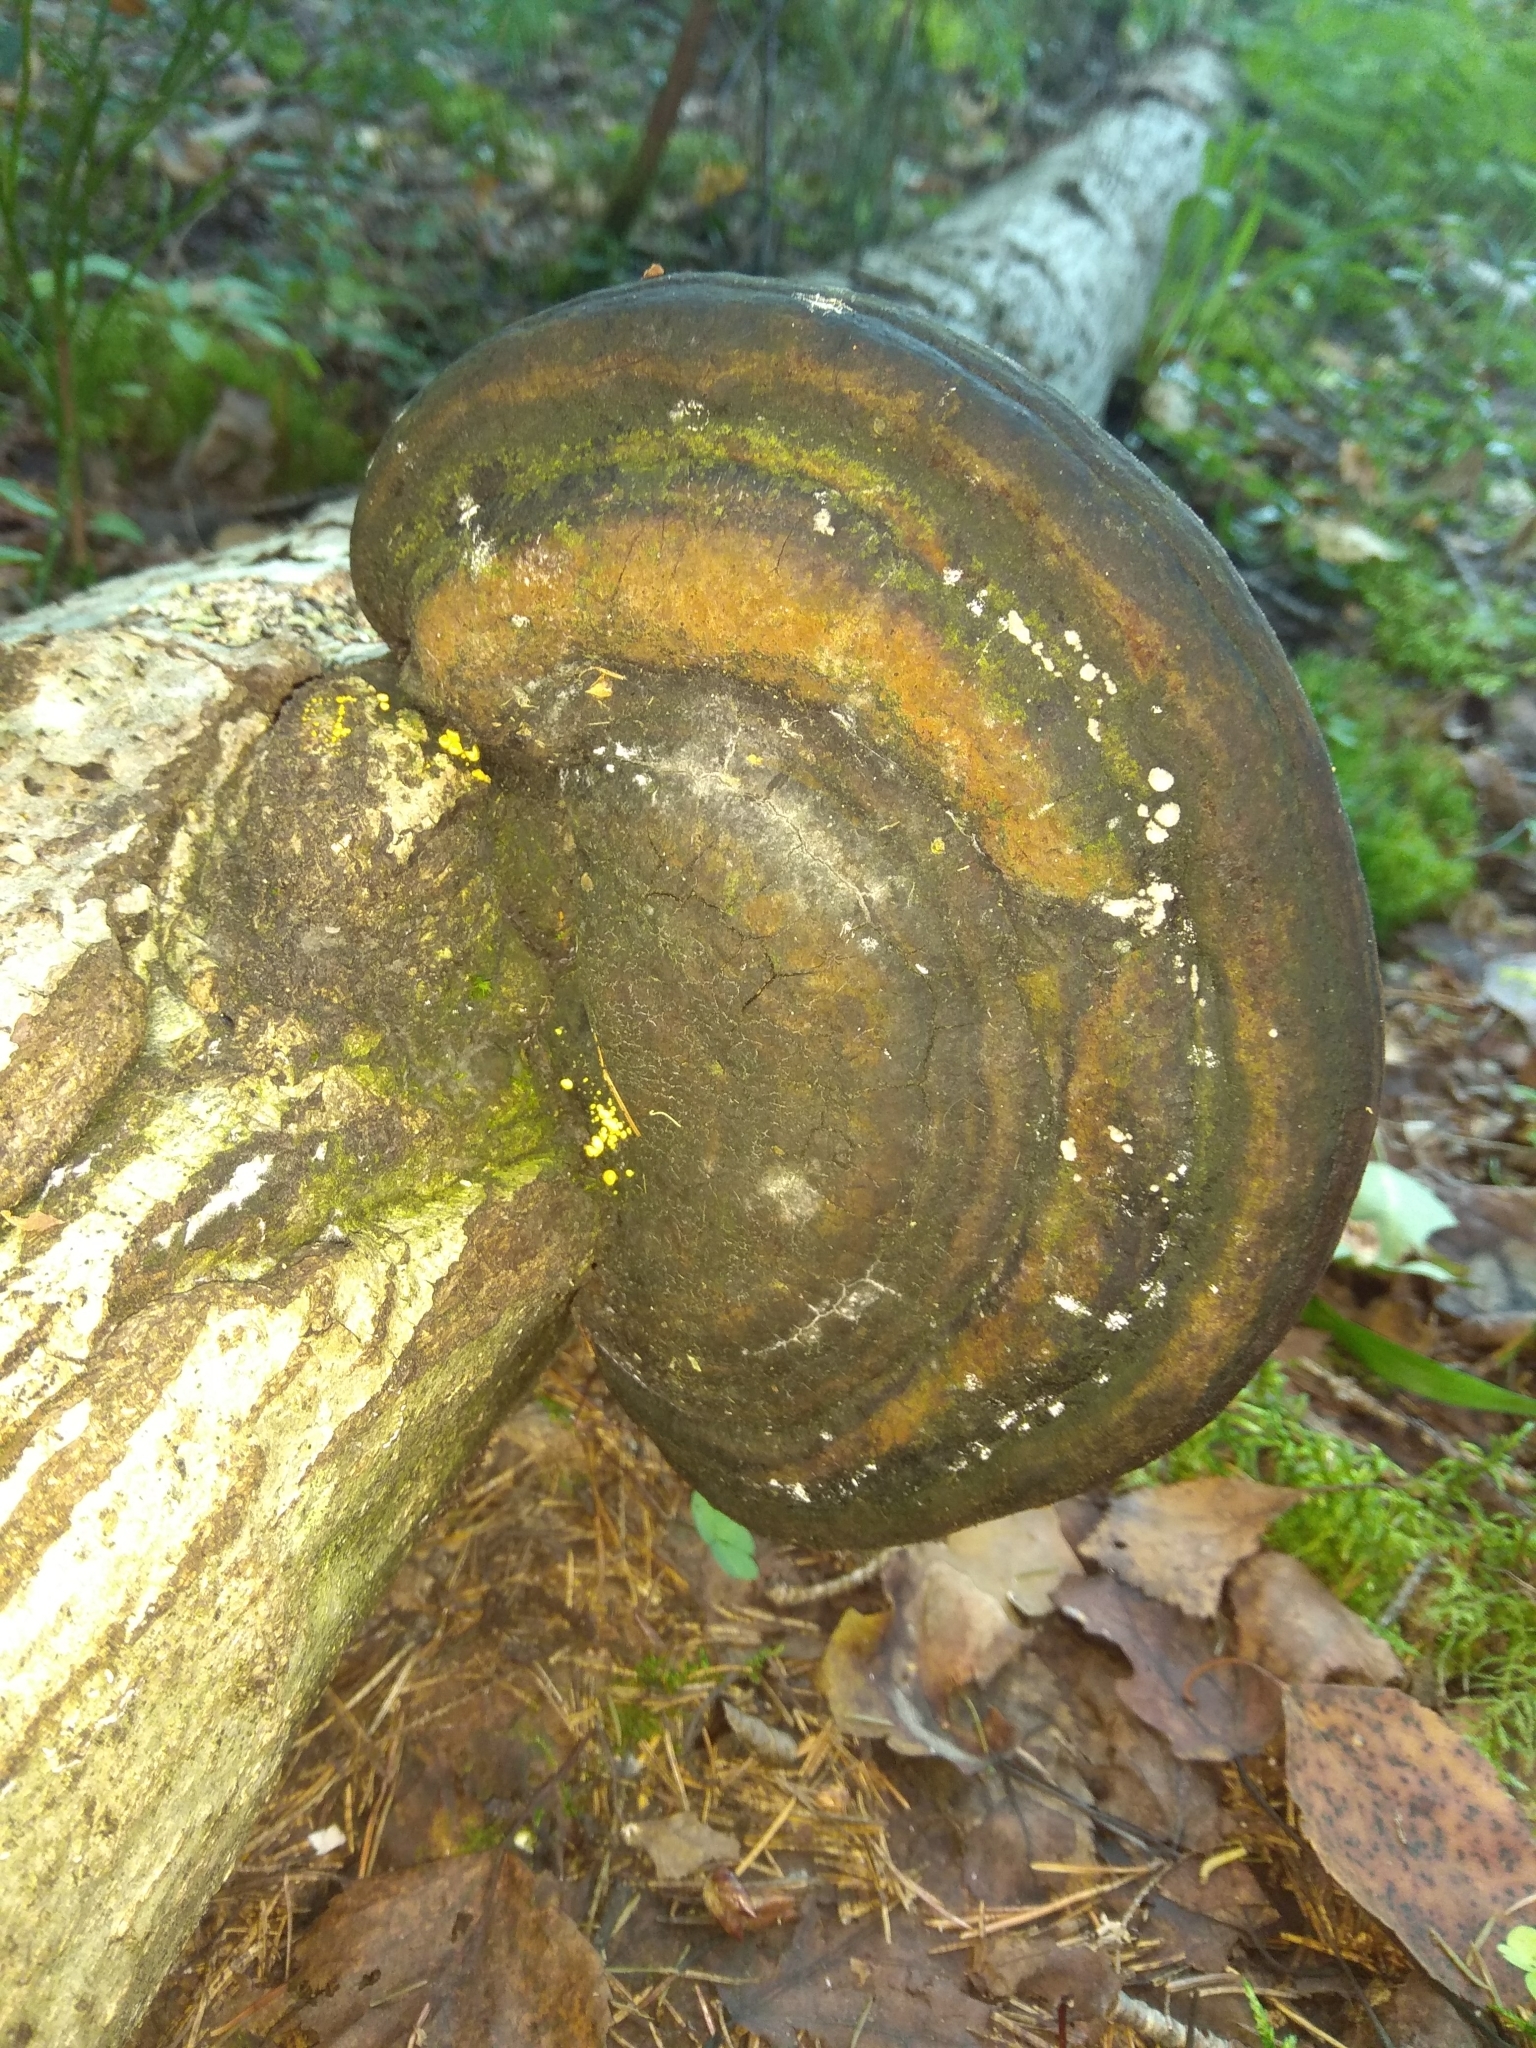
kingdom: Fungi
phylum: Basidiomycota
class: Agaricomycetes
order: Hymenochaetales
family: Hymenochaetaceae
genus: Phellinus
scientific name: Phellinus igniarius
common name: Willow bracket
